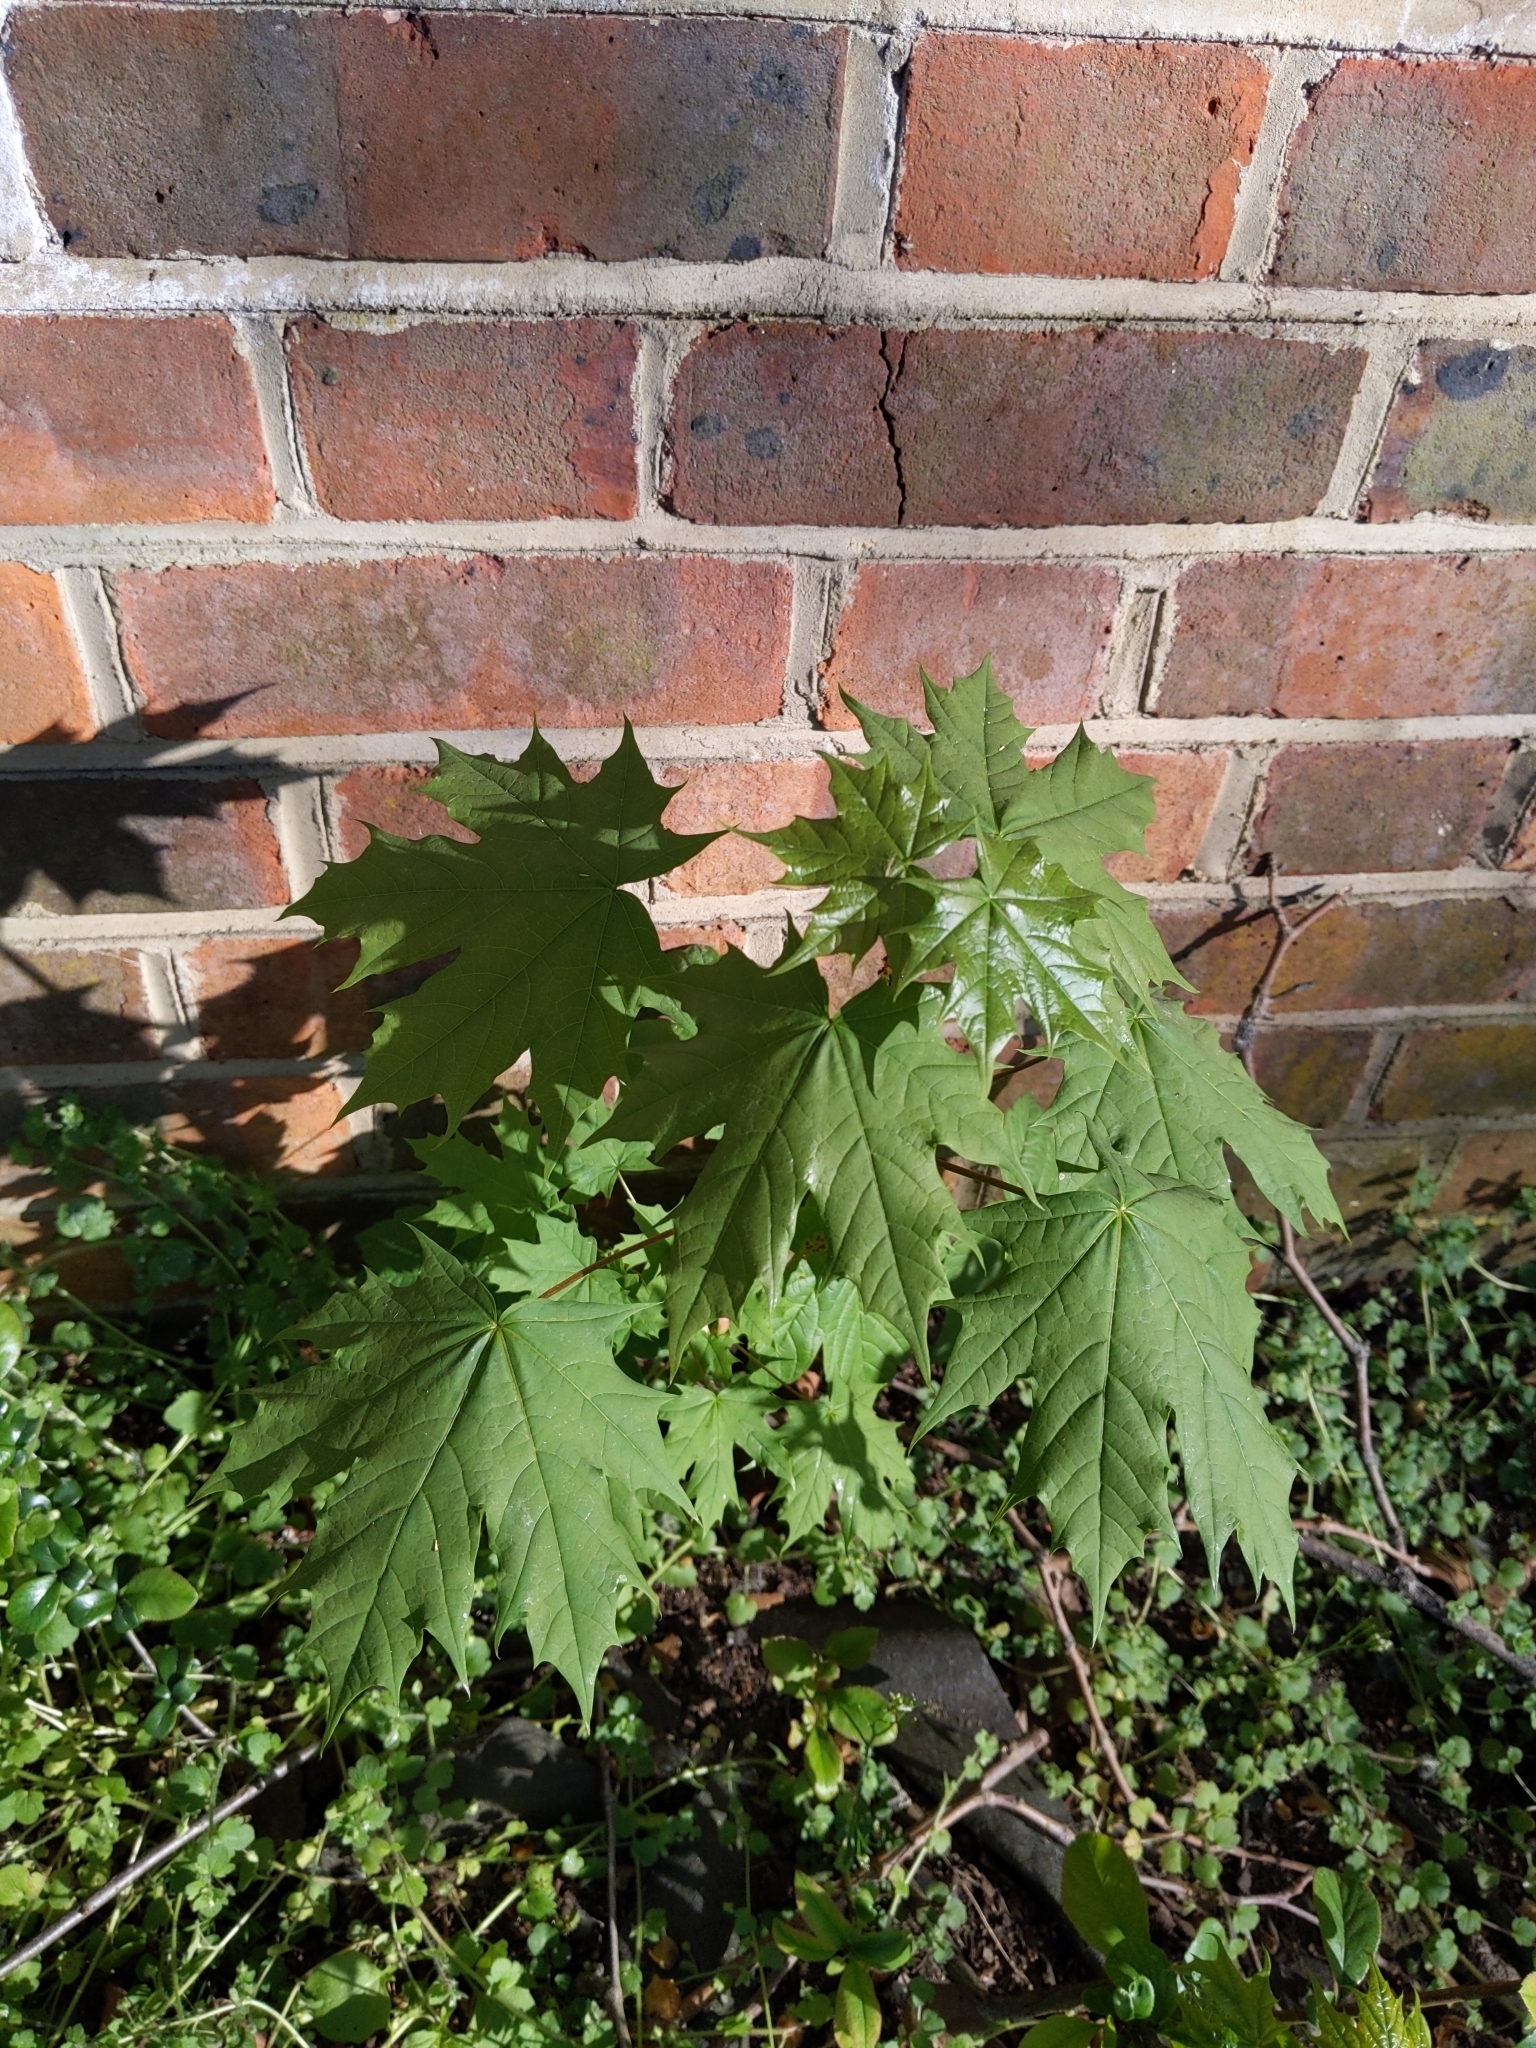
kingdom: Plantae
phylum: Tracheophyta
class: Magnoliopsida
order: Sapindales
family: Sapindaceae
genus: Acer
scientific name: Acer platanoides
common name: Norway maple
